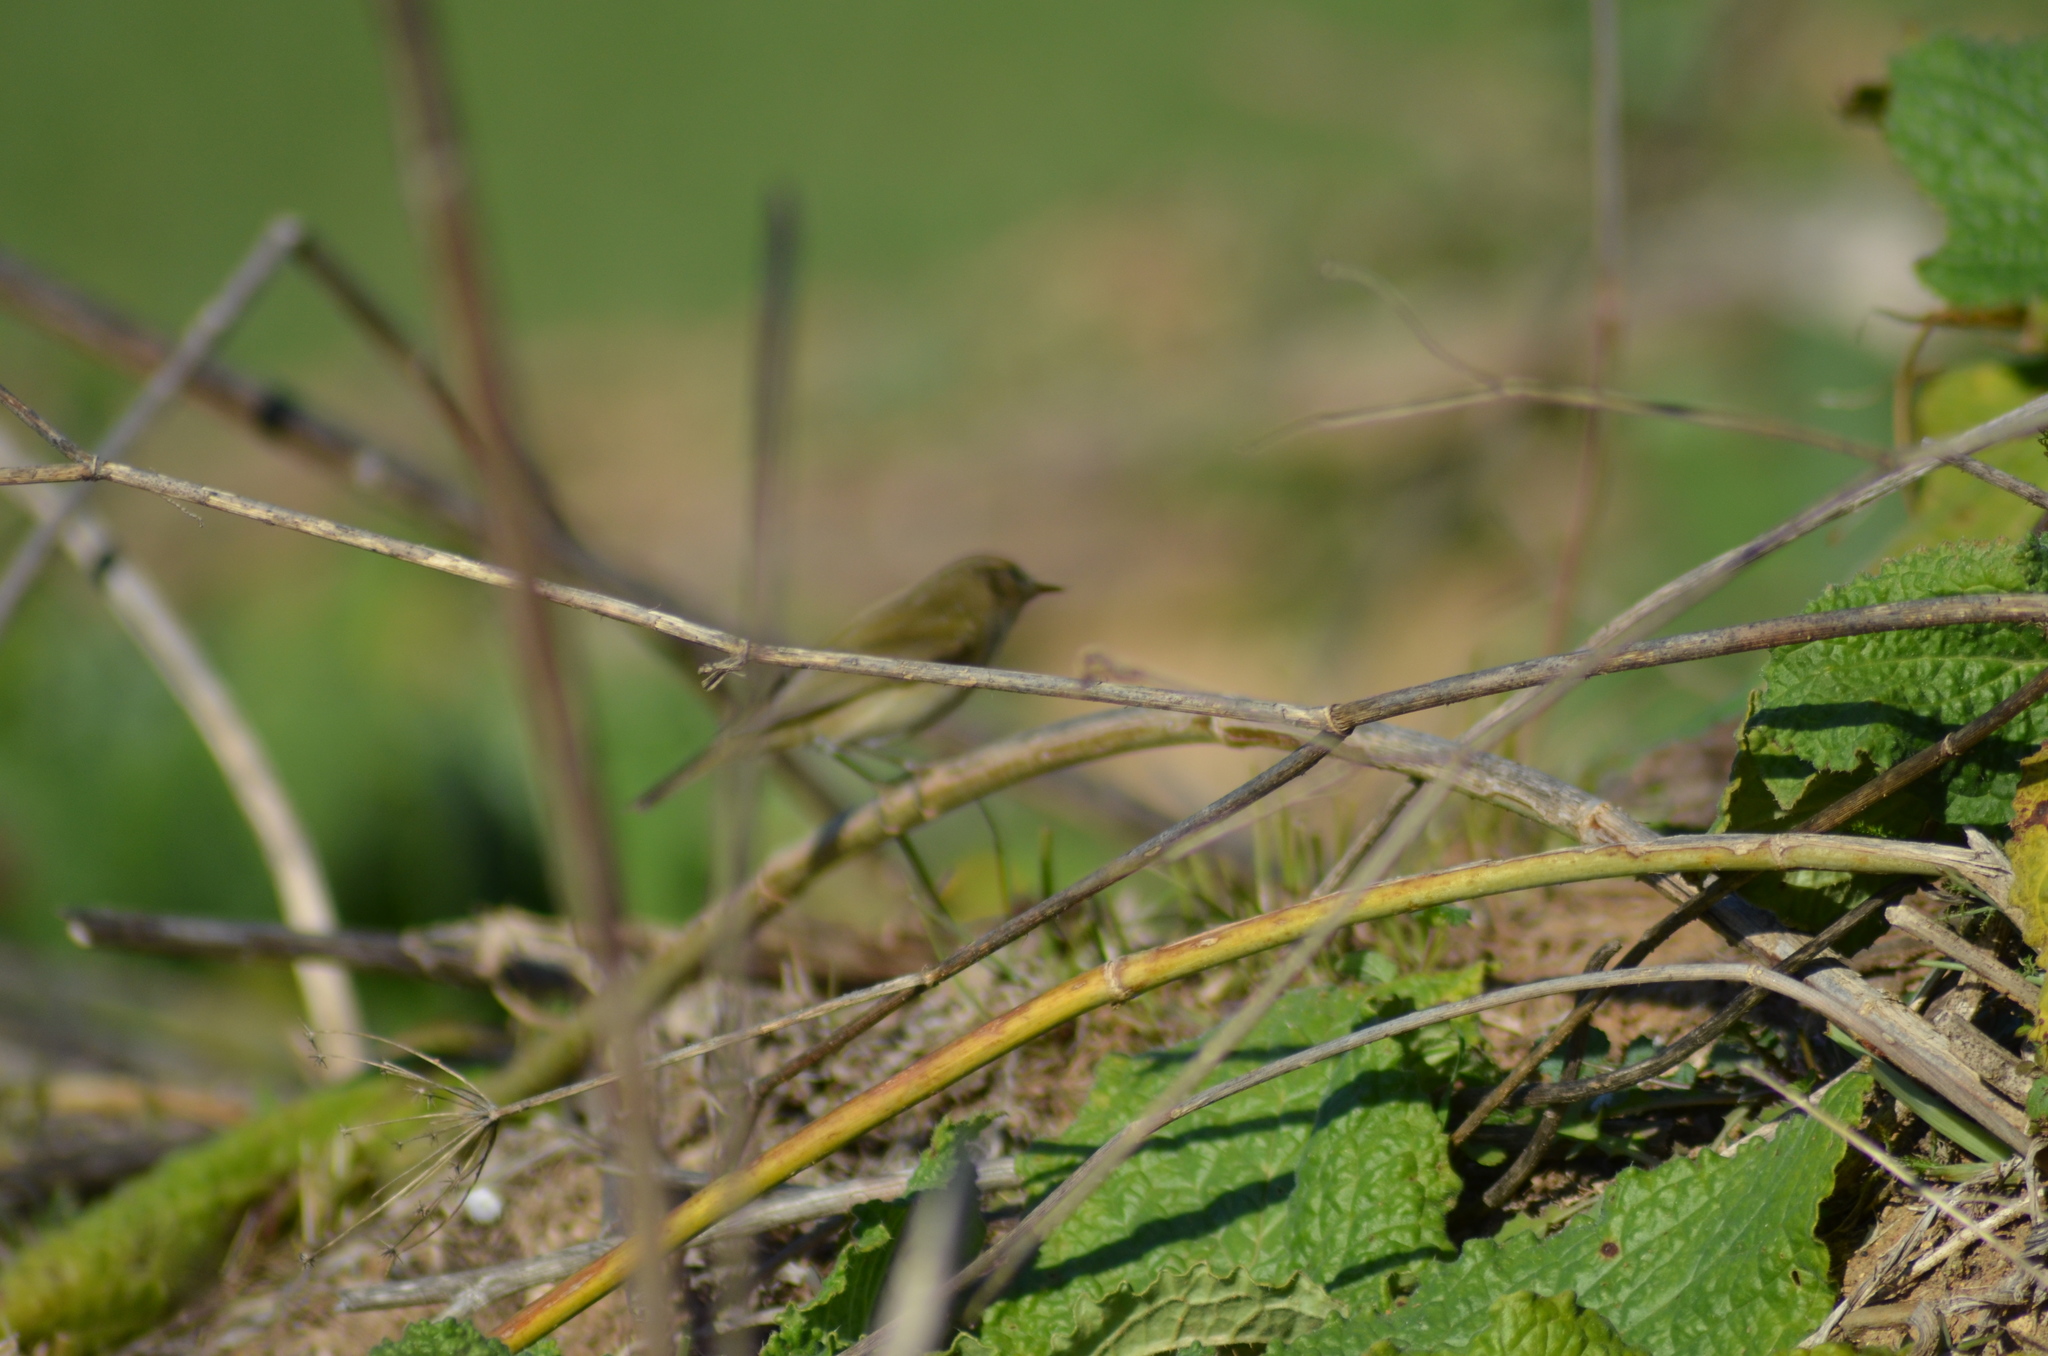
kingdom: Animalia
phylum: Chordata
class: Aves
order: Passeriformes
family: Phylloscopidae
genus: Phylloscopus
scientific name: Phylloscopus collybita
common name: Common chiffchaff
